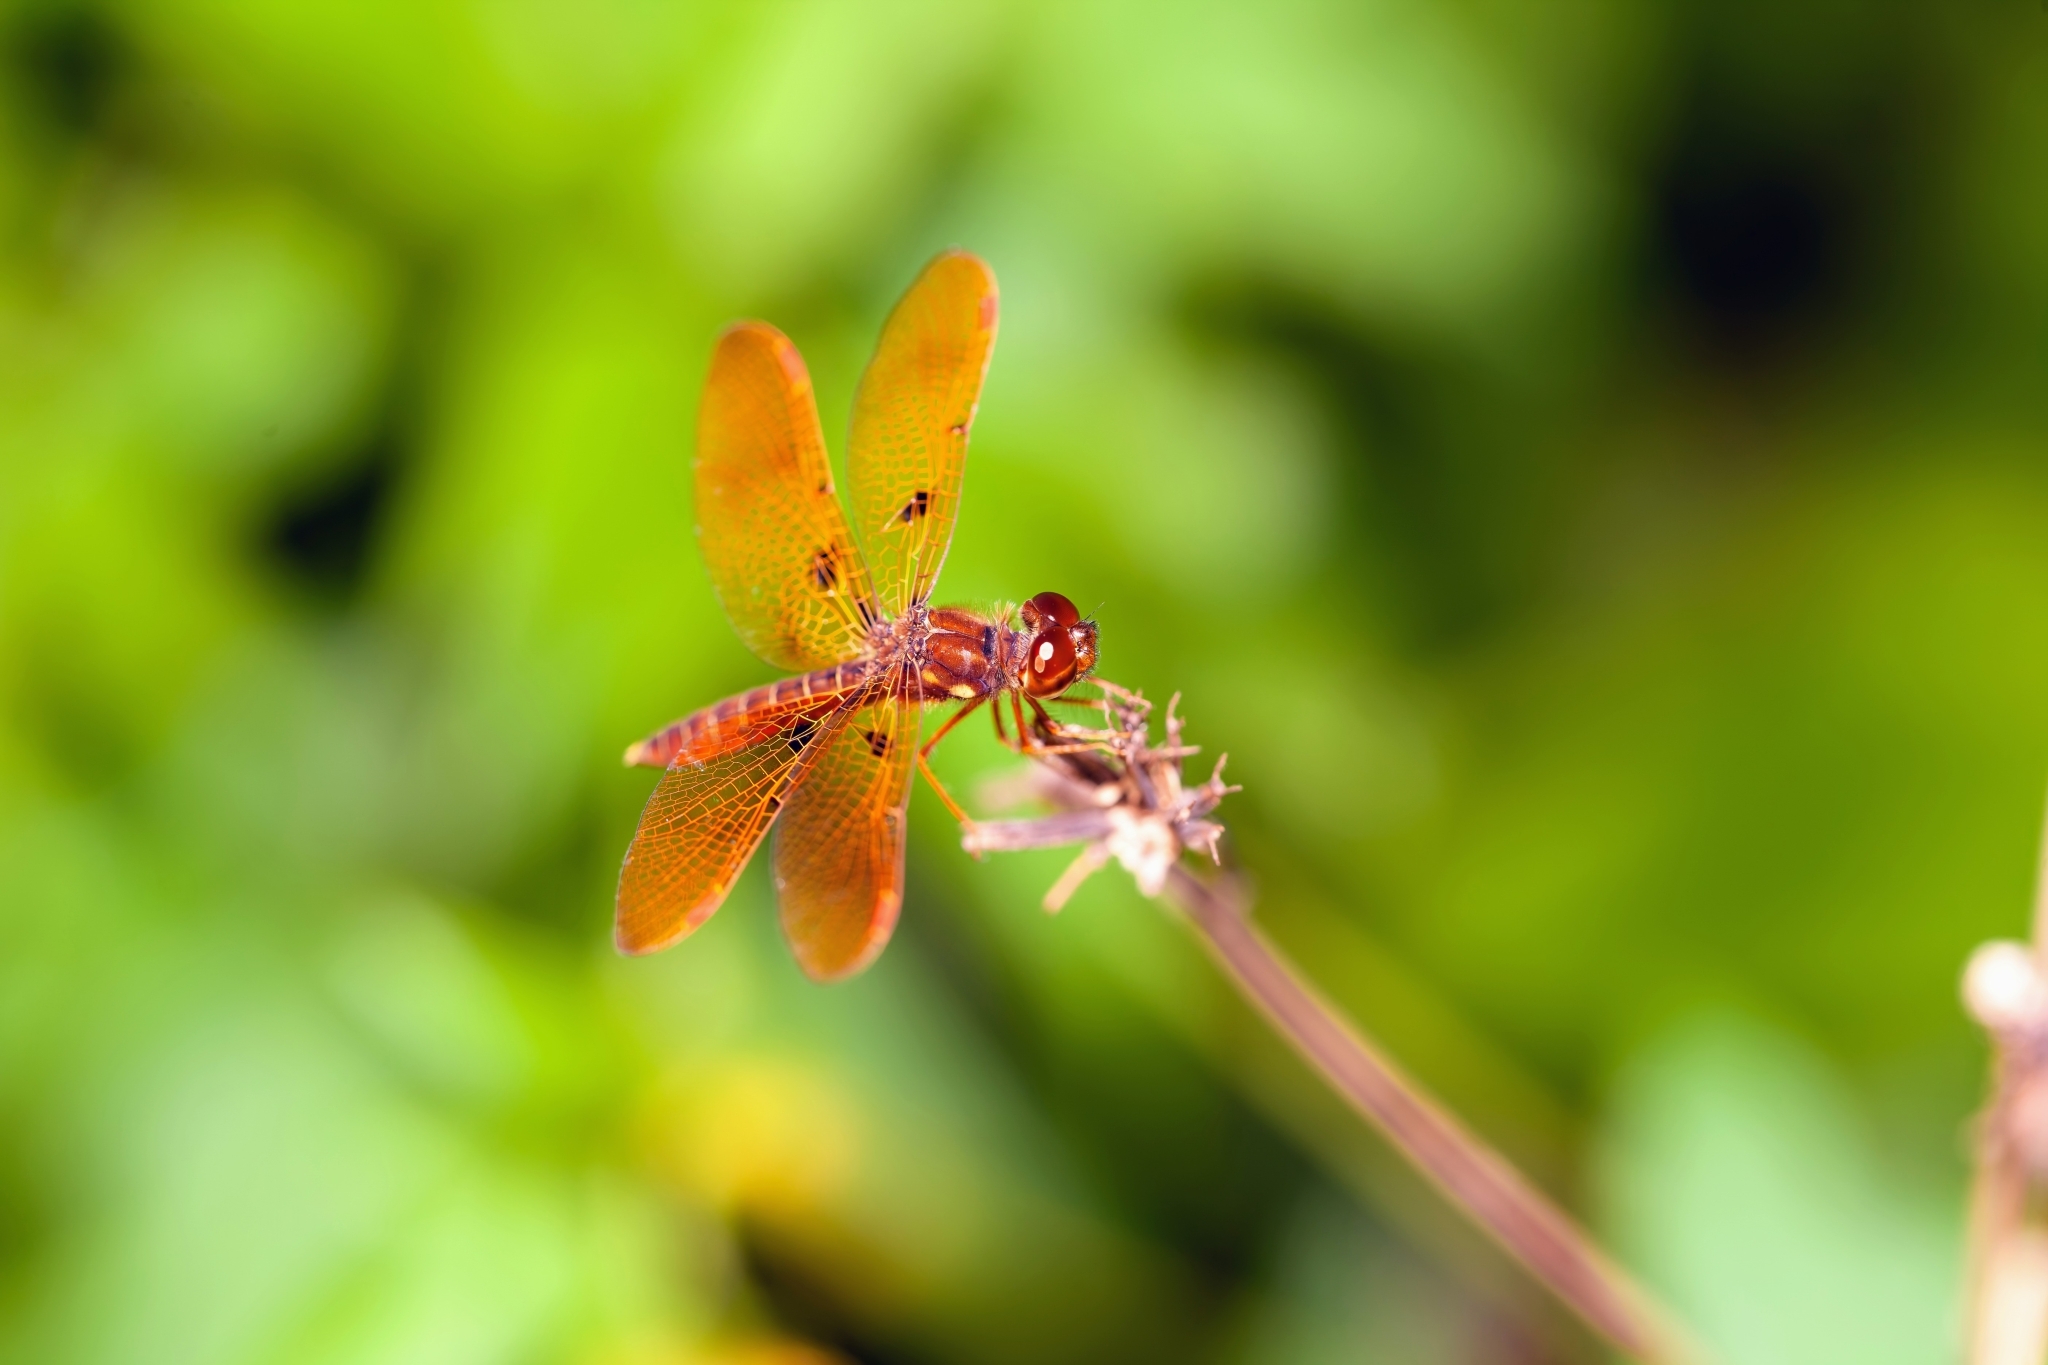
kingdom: Animalia
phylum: Arthropoda
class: Insecta
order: Odonata
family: Libellulidae
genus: Perithemis
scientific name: Perithemis tenera
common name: Eastern amberwing
